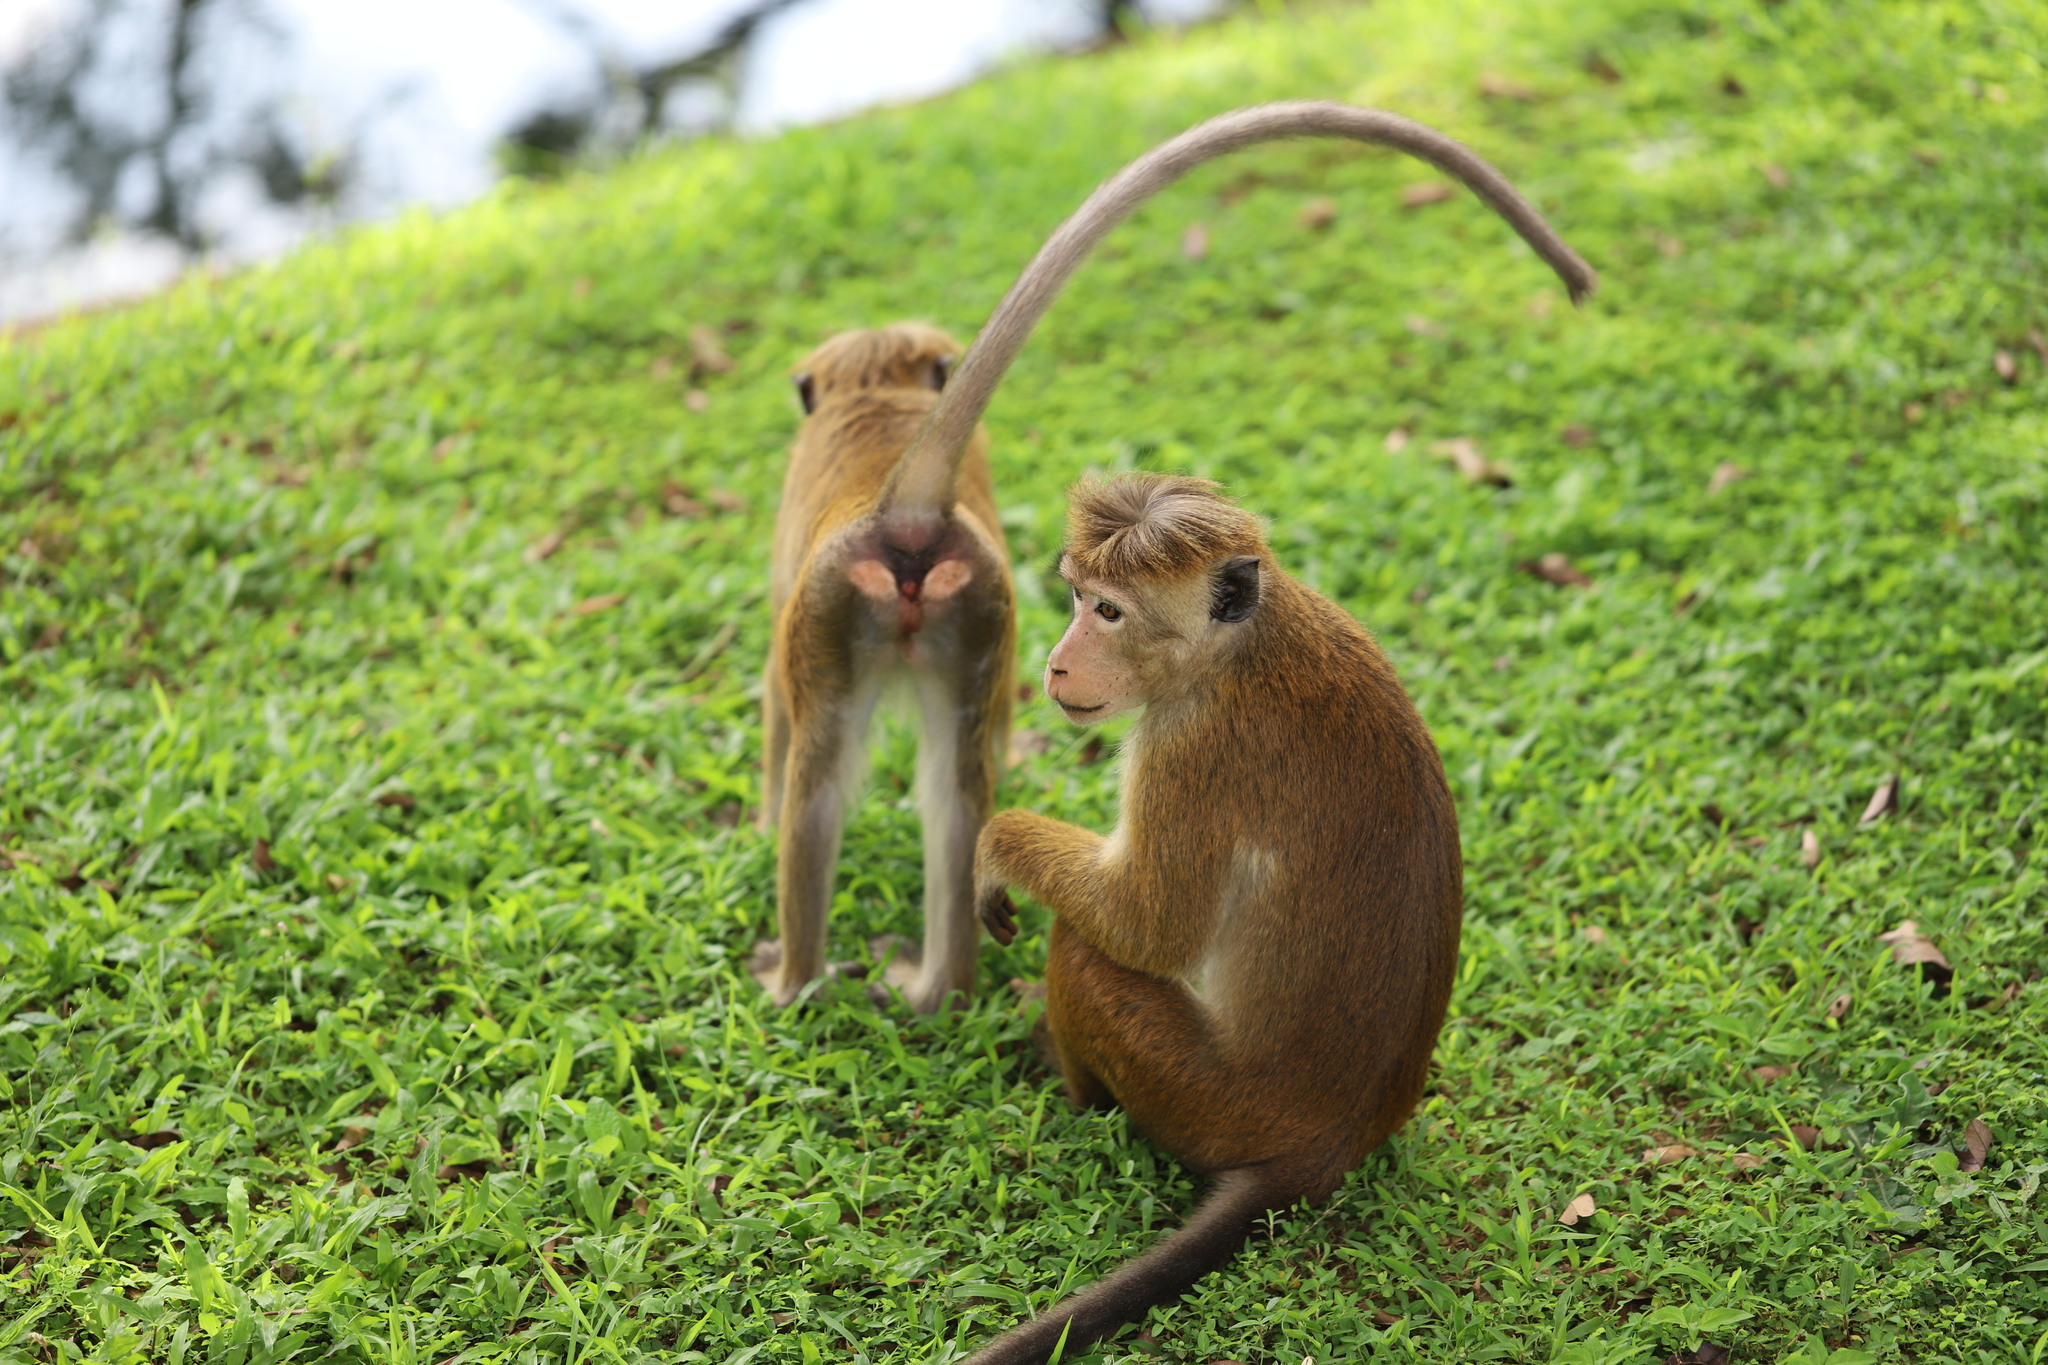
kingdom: Animalia
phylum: Chordata
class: Mammalia
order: Primates
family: Cercopithecidae
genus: Macaca
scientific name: Macaca sinica
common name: Toque macaque
